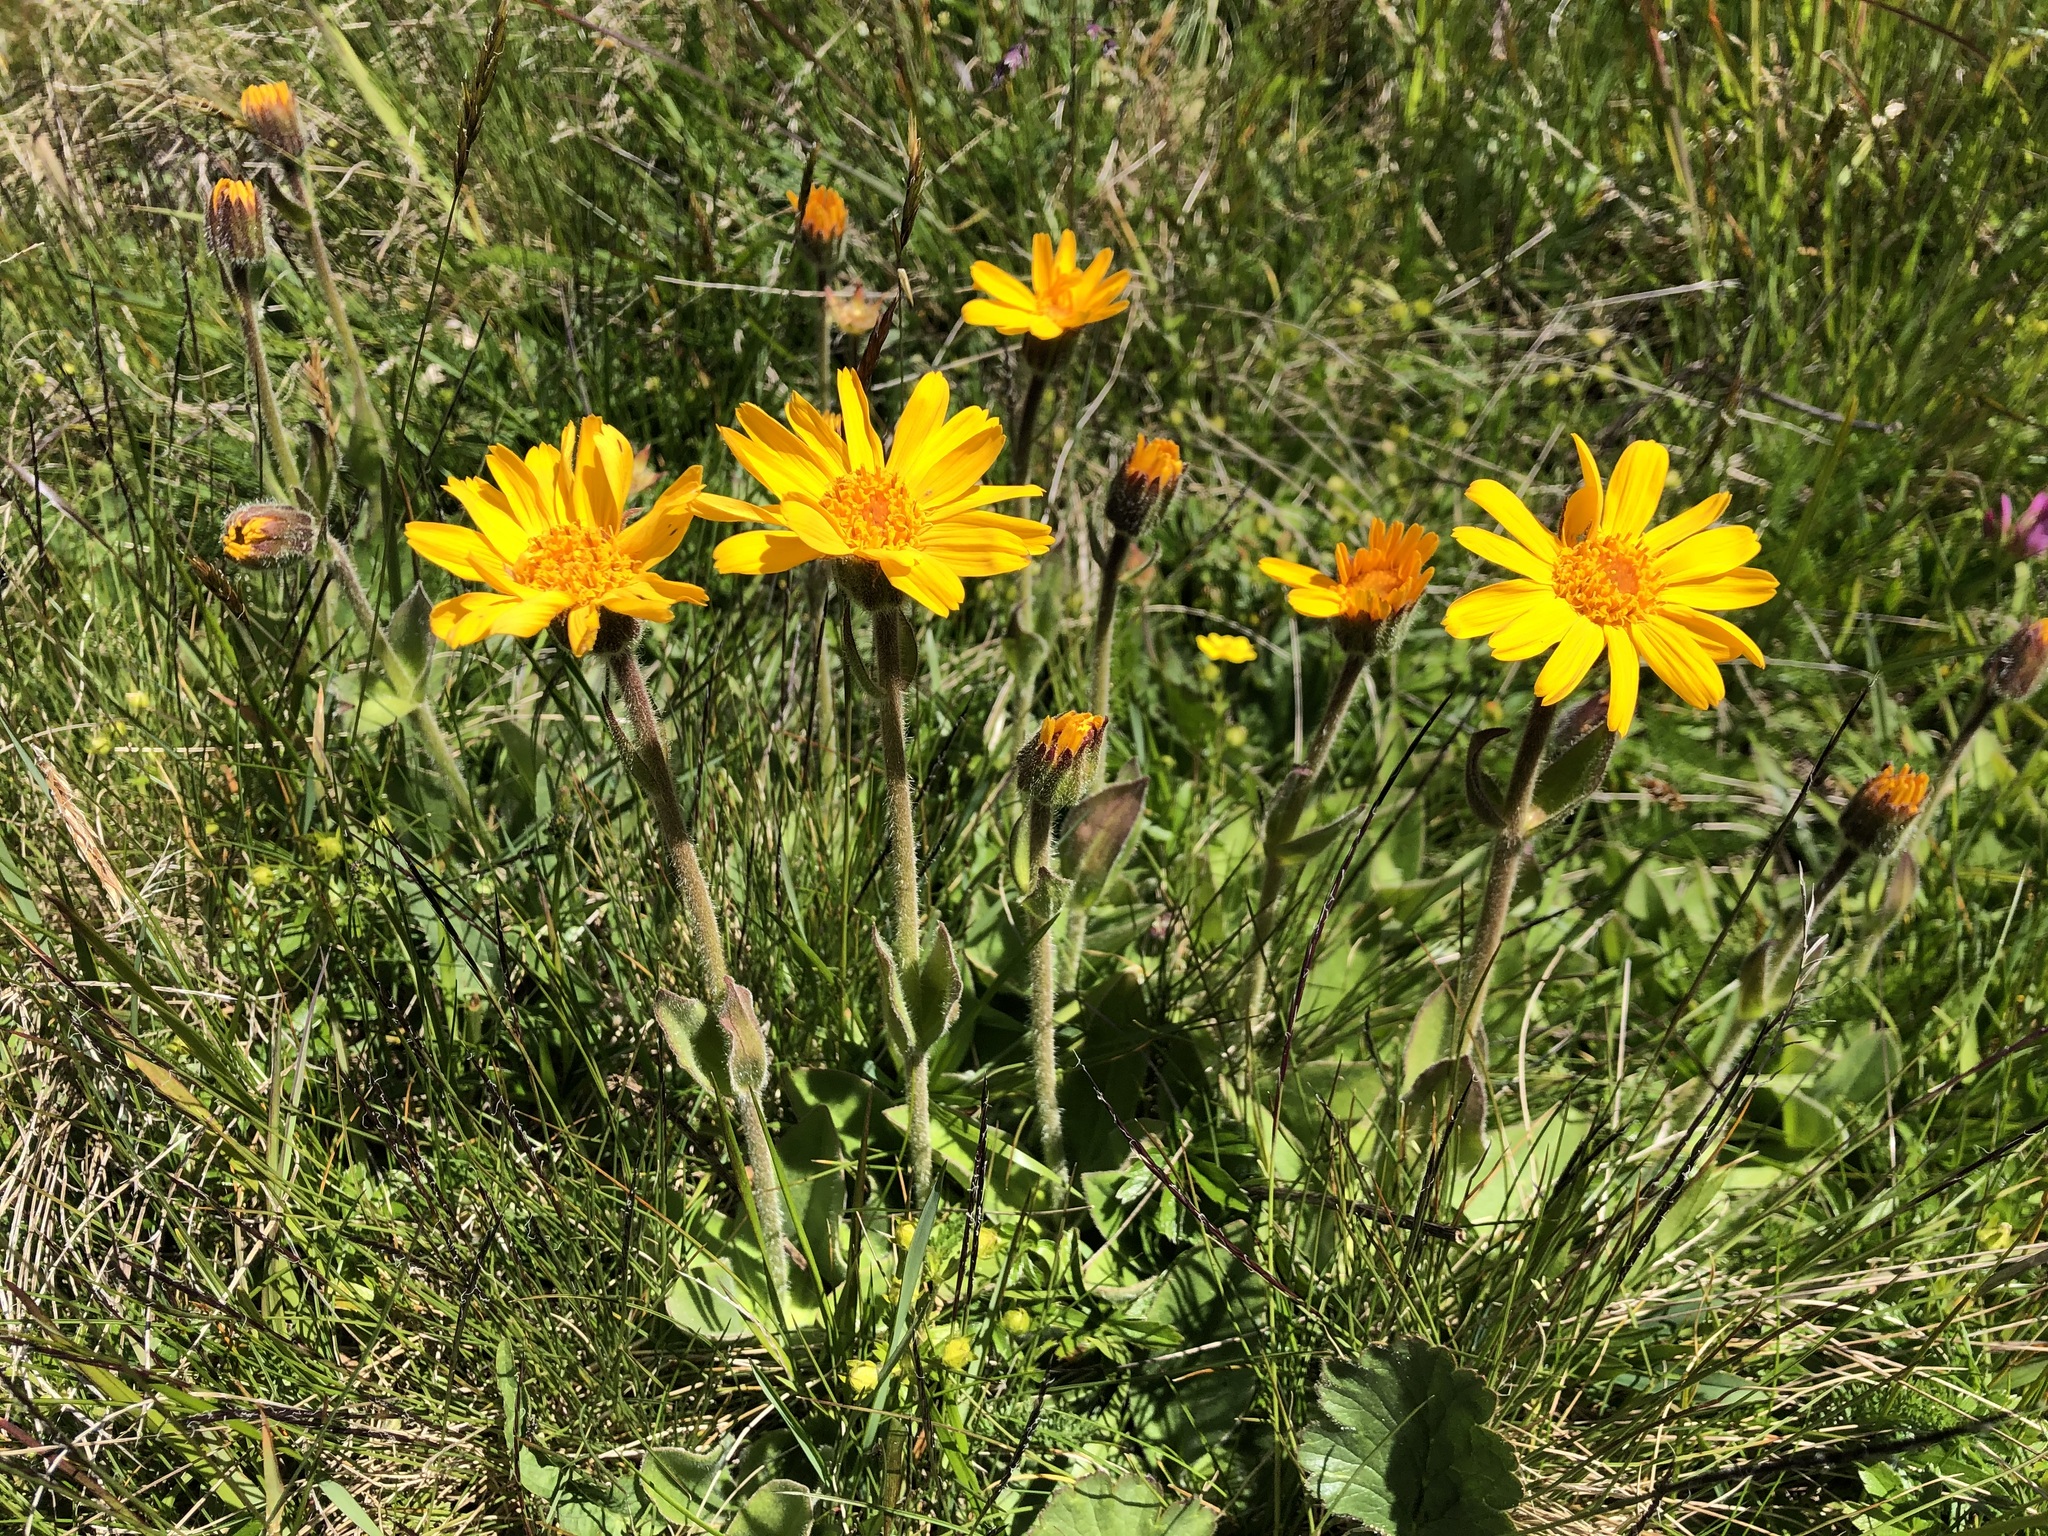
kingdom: Plantae
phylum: Tracheophyta
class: Magnoliopsida
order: Asterales
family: Asteraceae
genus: Arnica
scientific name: Arnica montana
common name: Leopard's bane
